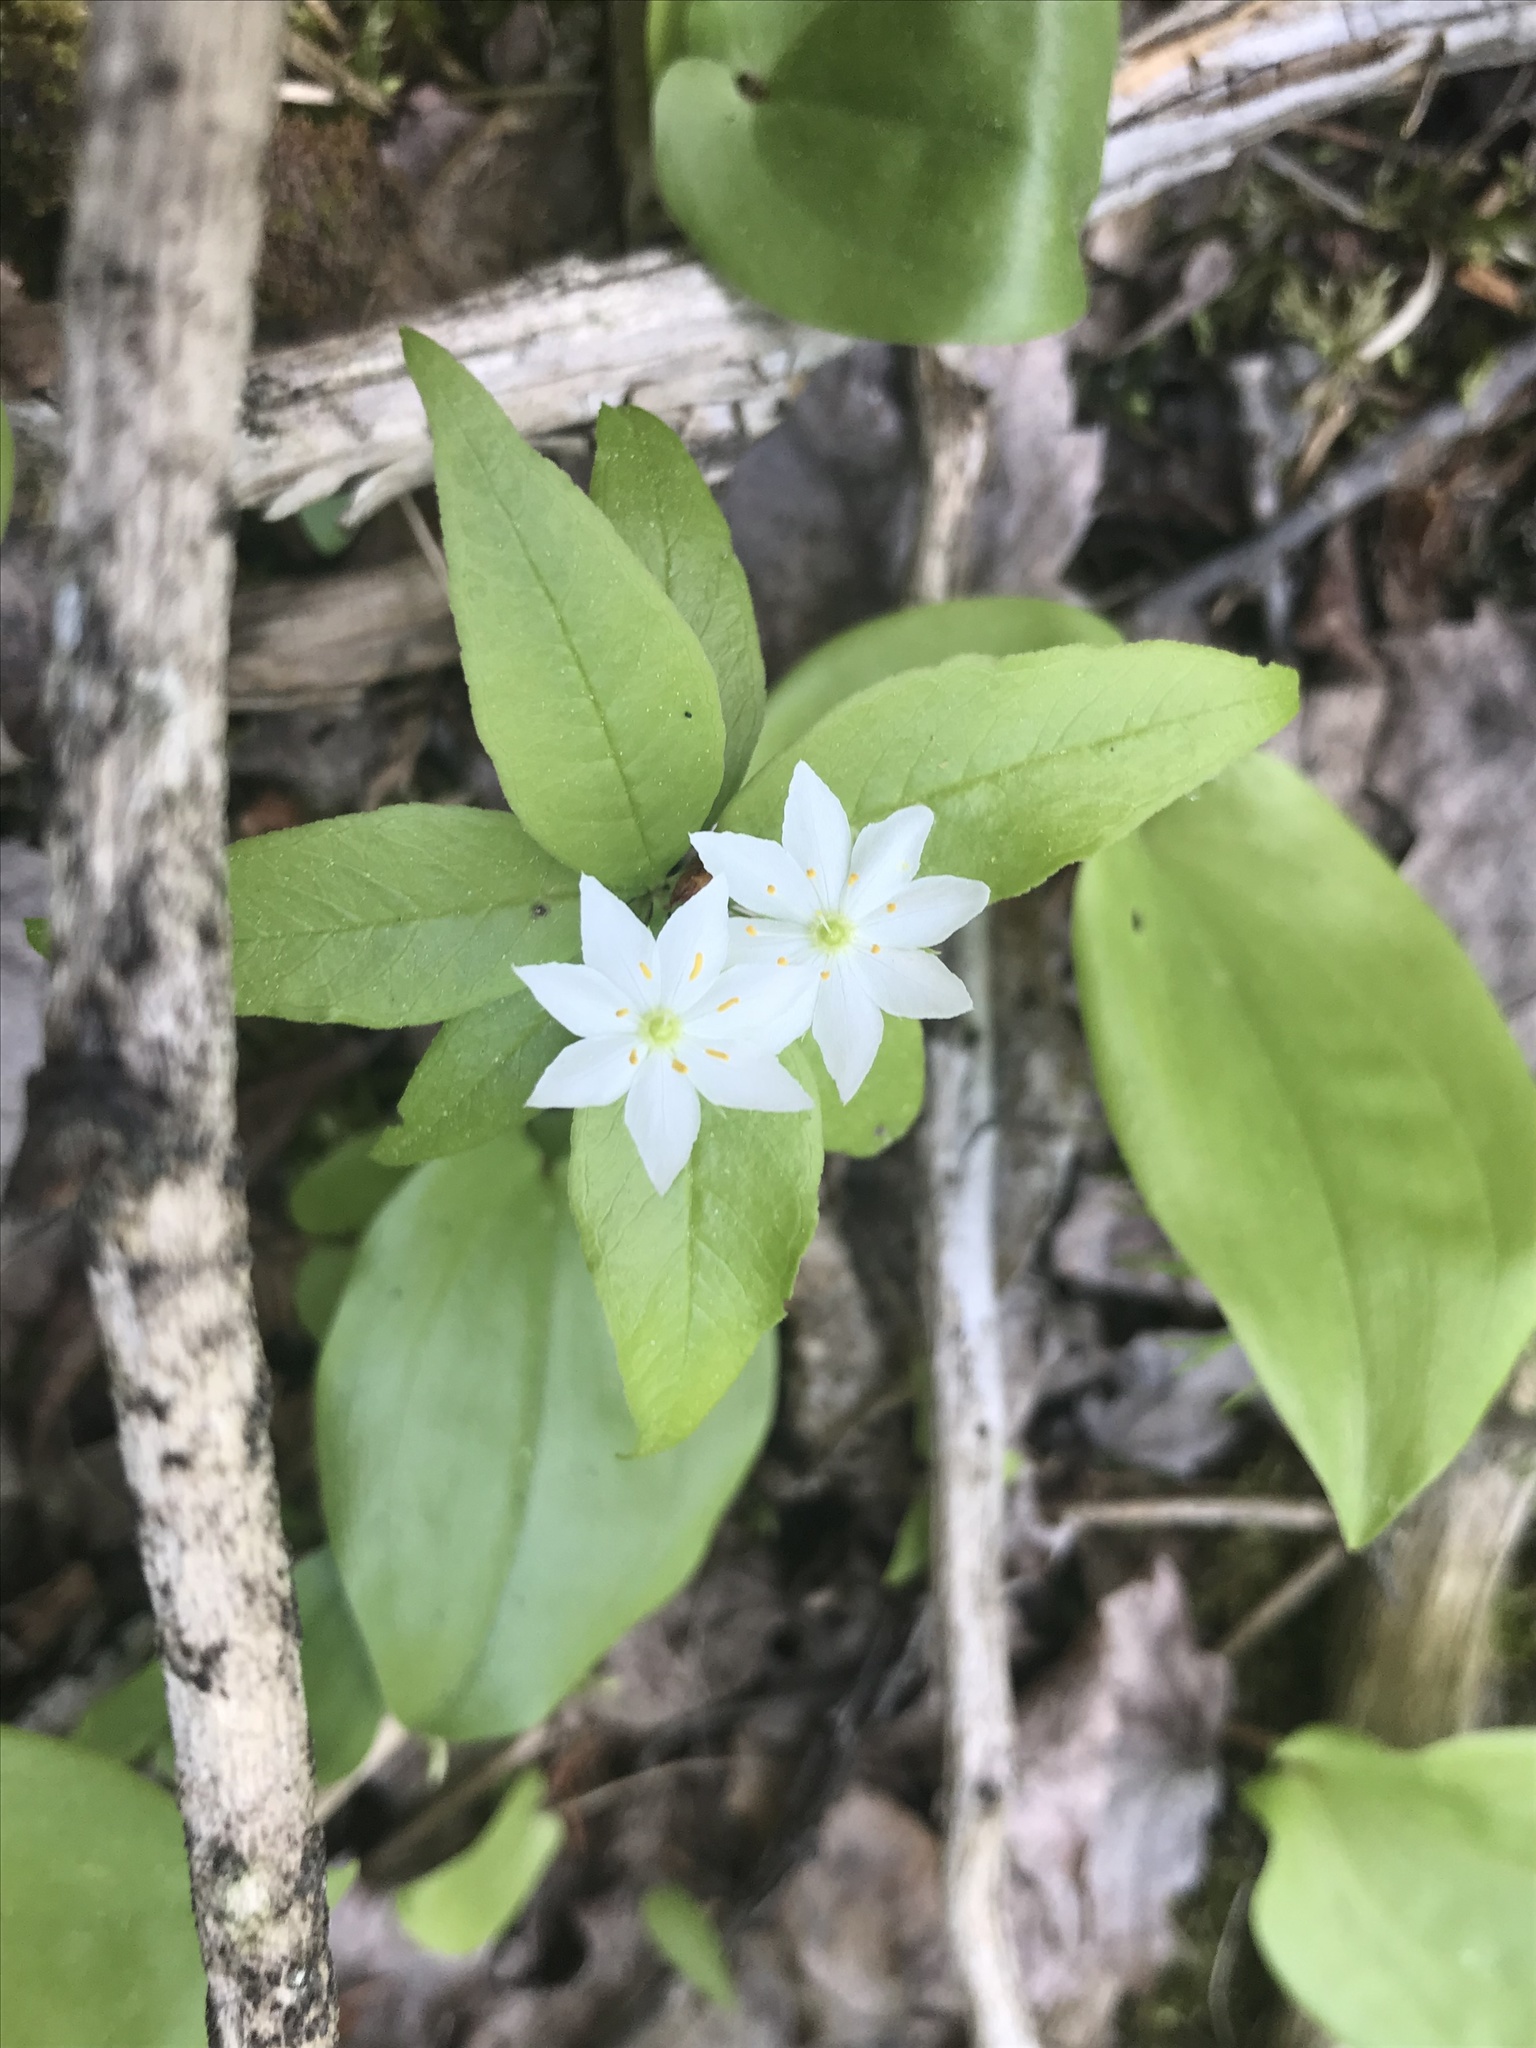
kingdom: Plantae
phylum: Tracheophyta
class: Magnoliopsida
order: Ericales
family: Primulaceae
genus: Lysimachia
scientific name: Lysimachia borealis
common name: American starflower
